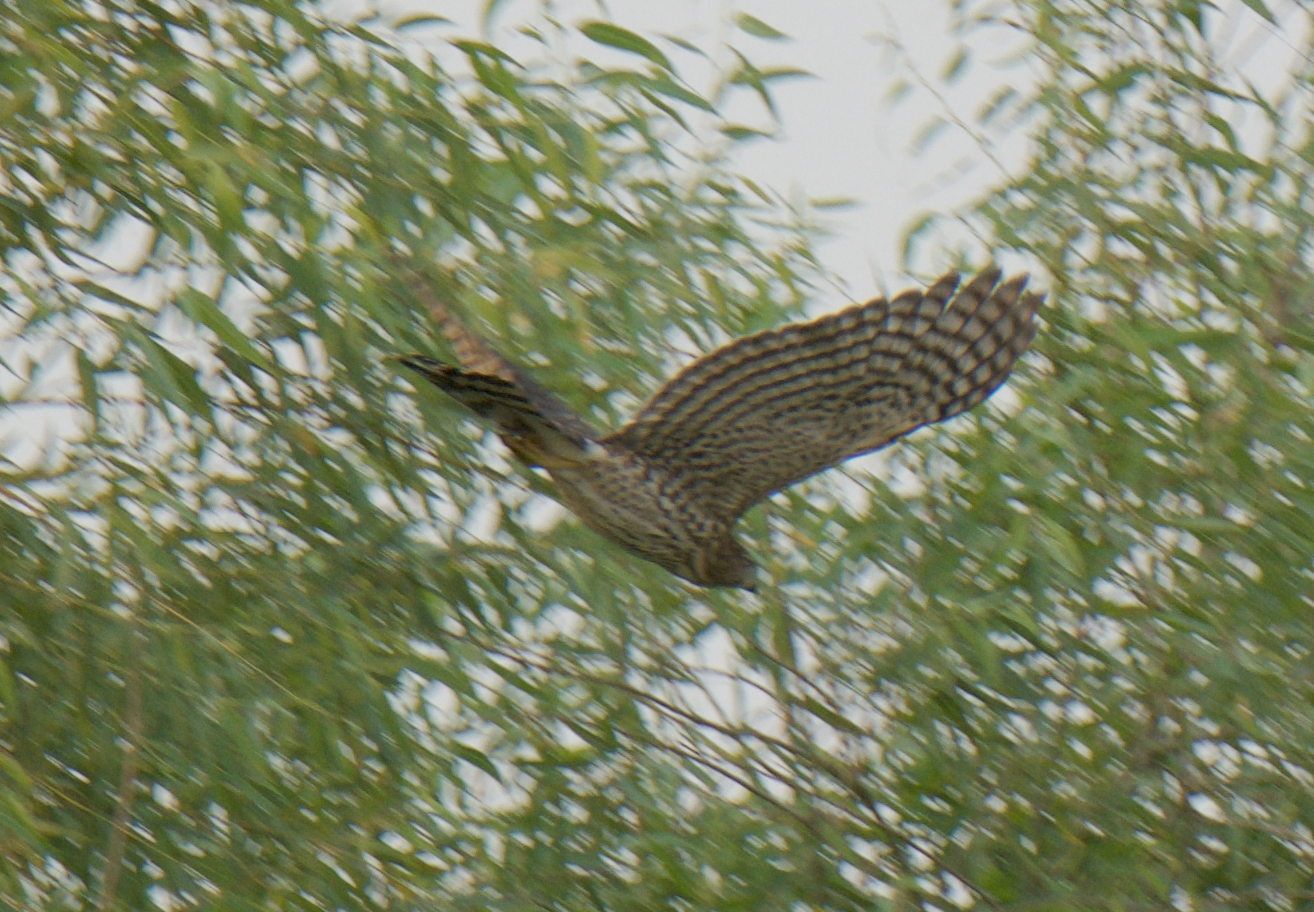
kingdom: Animalia
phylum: Chordata
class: Aves
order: Accipitriformes
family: Accipitridae
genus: Accipiter
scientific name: Accipiter cooperii
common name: Cooper's hawk
